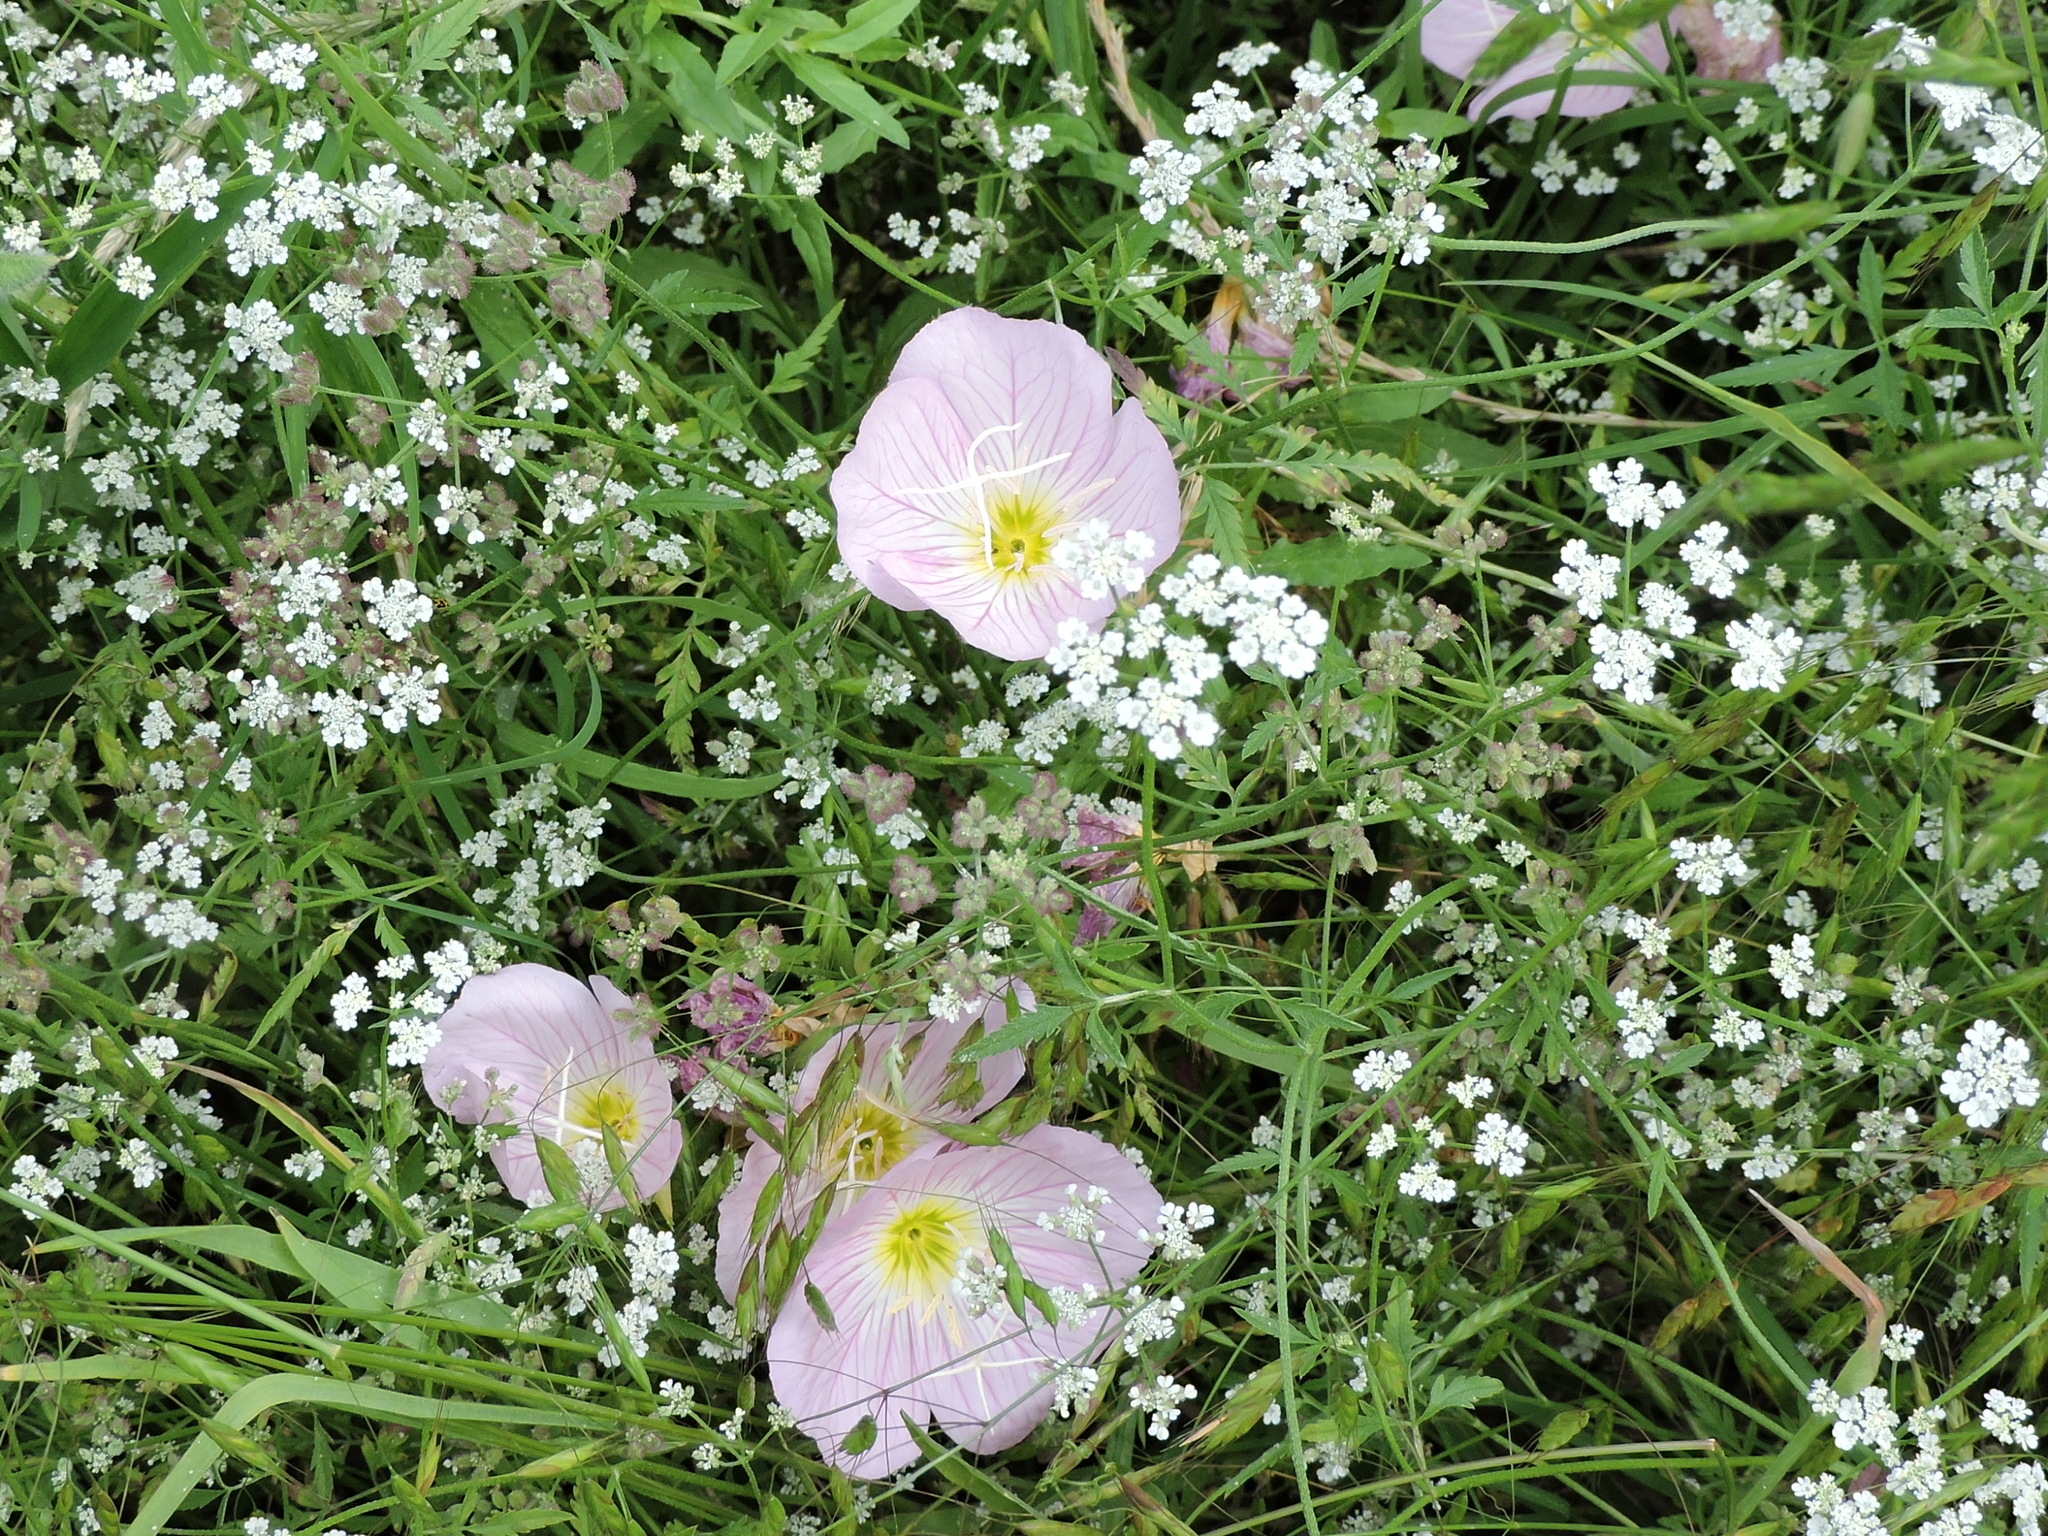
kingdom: Plantae
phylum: Tracheophyta
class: Magnoliopsida
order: Myrtales
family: Onagraceae
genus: Oenothera
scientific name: Oenothera speciosa
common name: White evening-primrose
